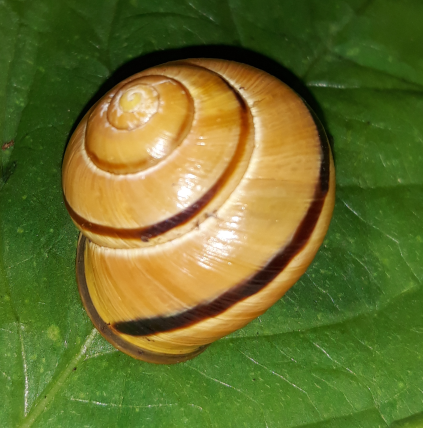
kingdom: Animalia
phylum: Mollusca
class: Gastropoda
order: Stylommatophora
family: Helicidae
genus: Cepaea
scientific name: Cepaea nemoralis
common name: Grovesnail
